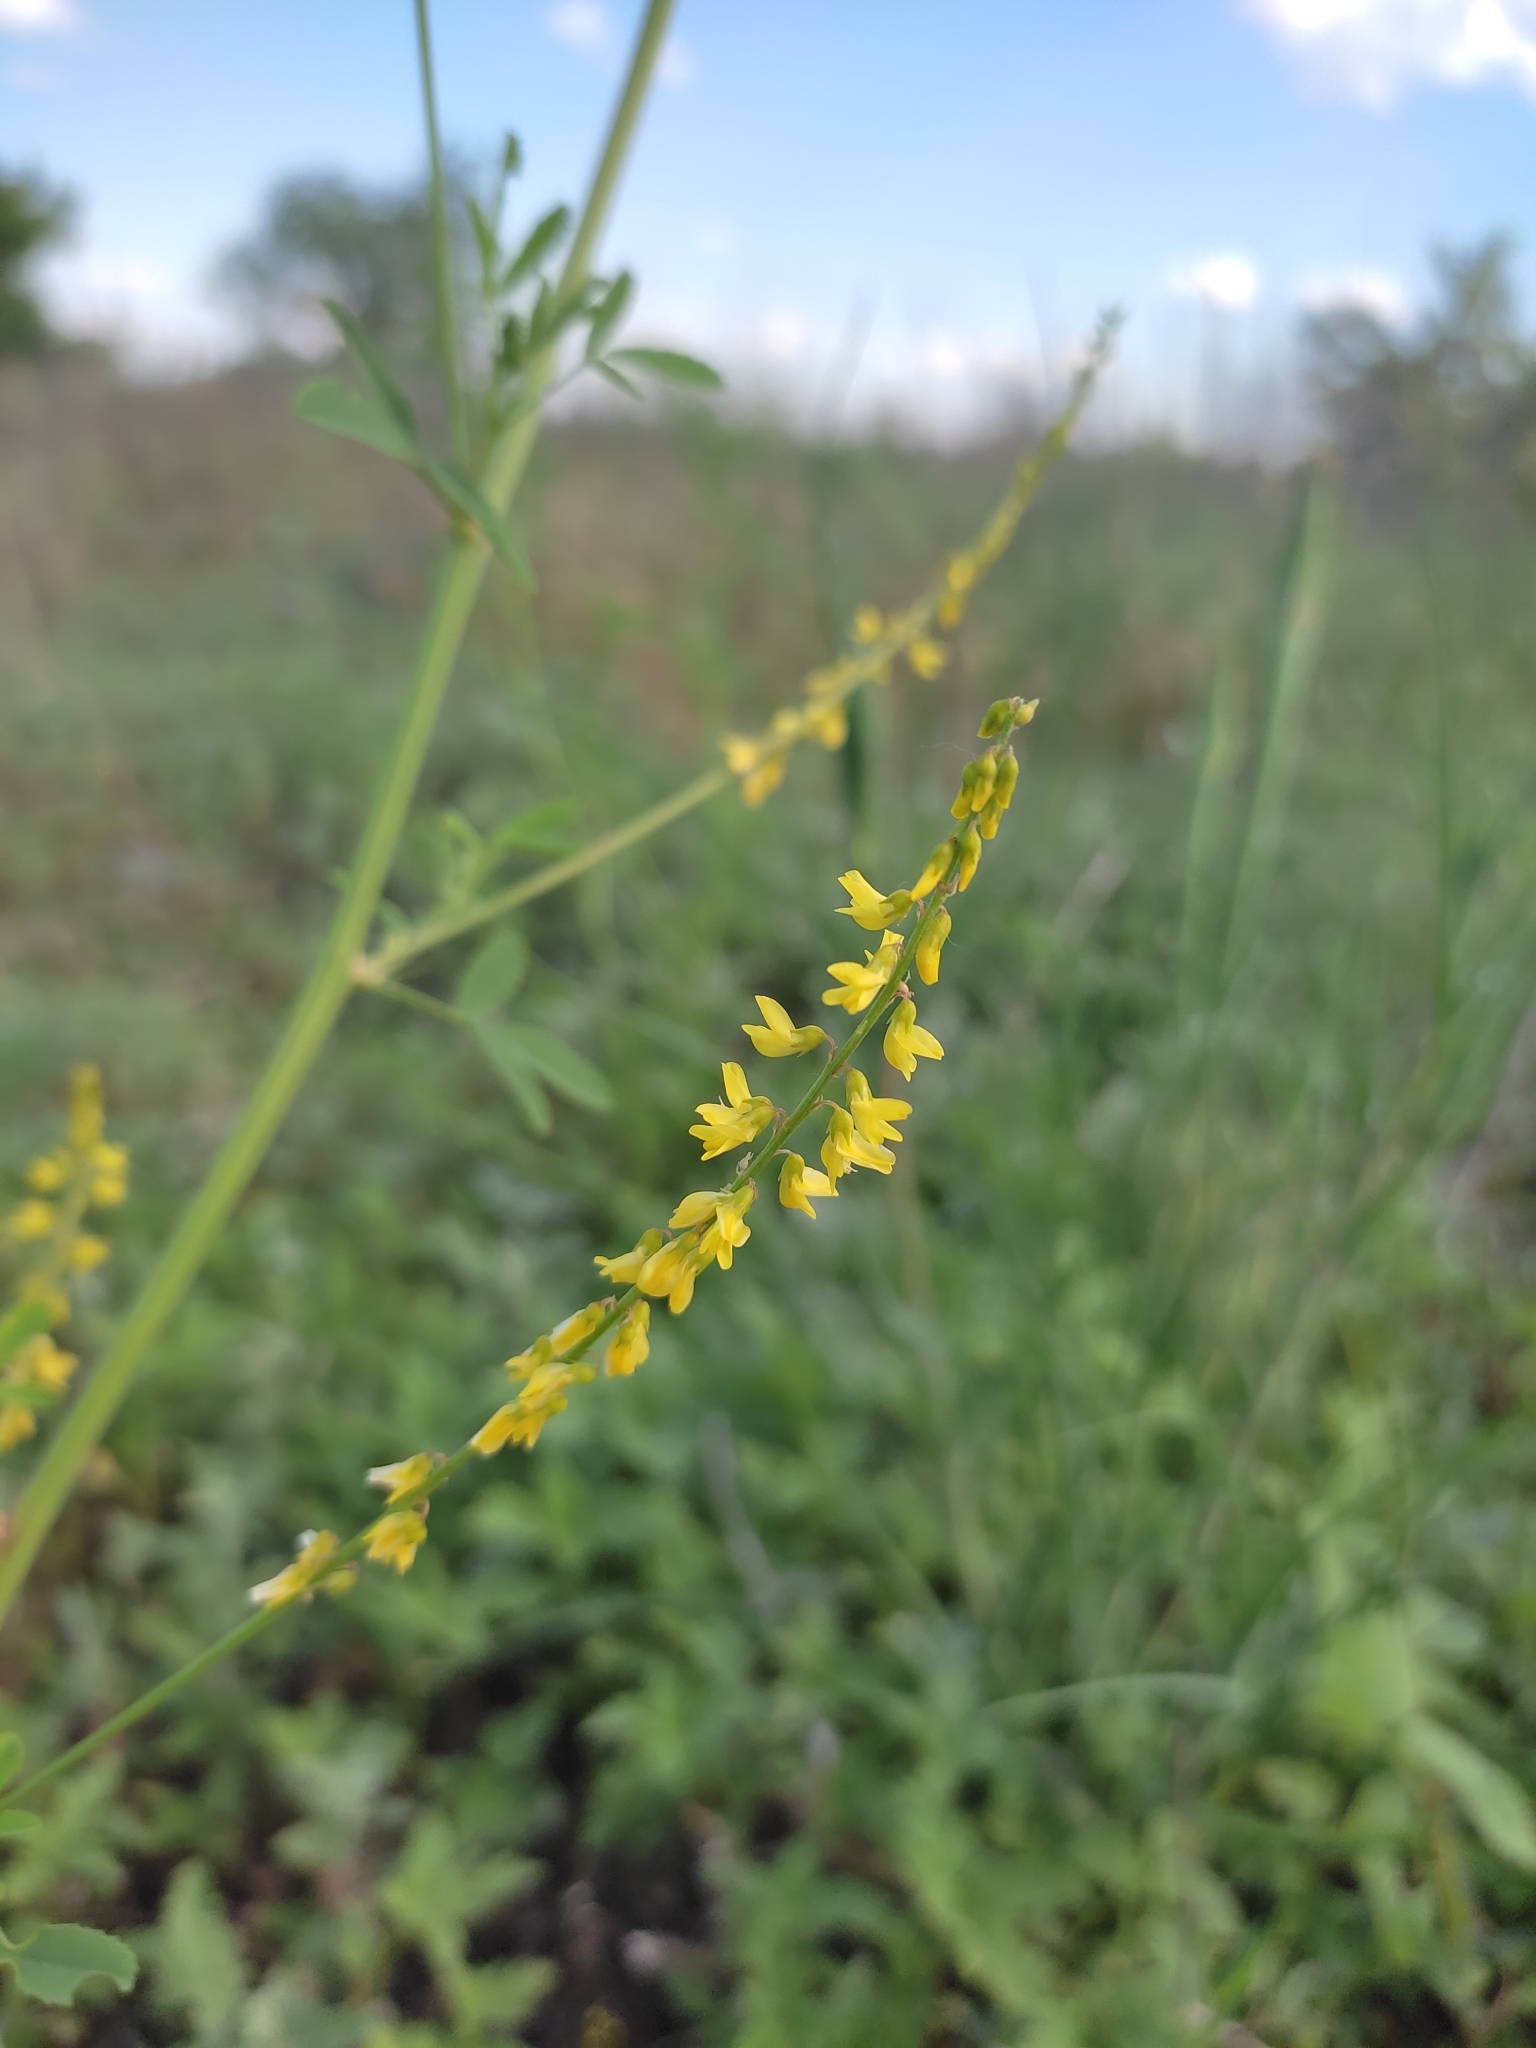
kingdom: Plantae
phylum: Tracheophyta
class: Magnoliopsida
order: Fabales
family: Fabaceae
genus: Melilotus
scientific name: Melilotus officinalis
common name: Sweetclover
